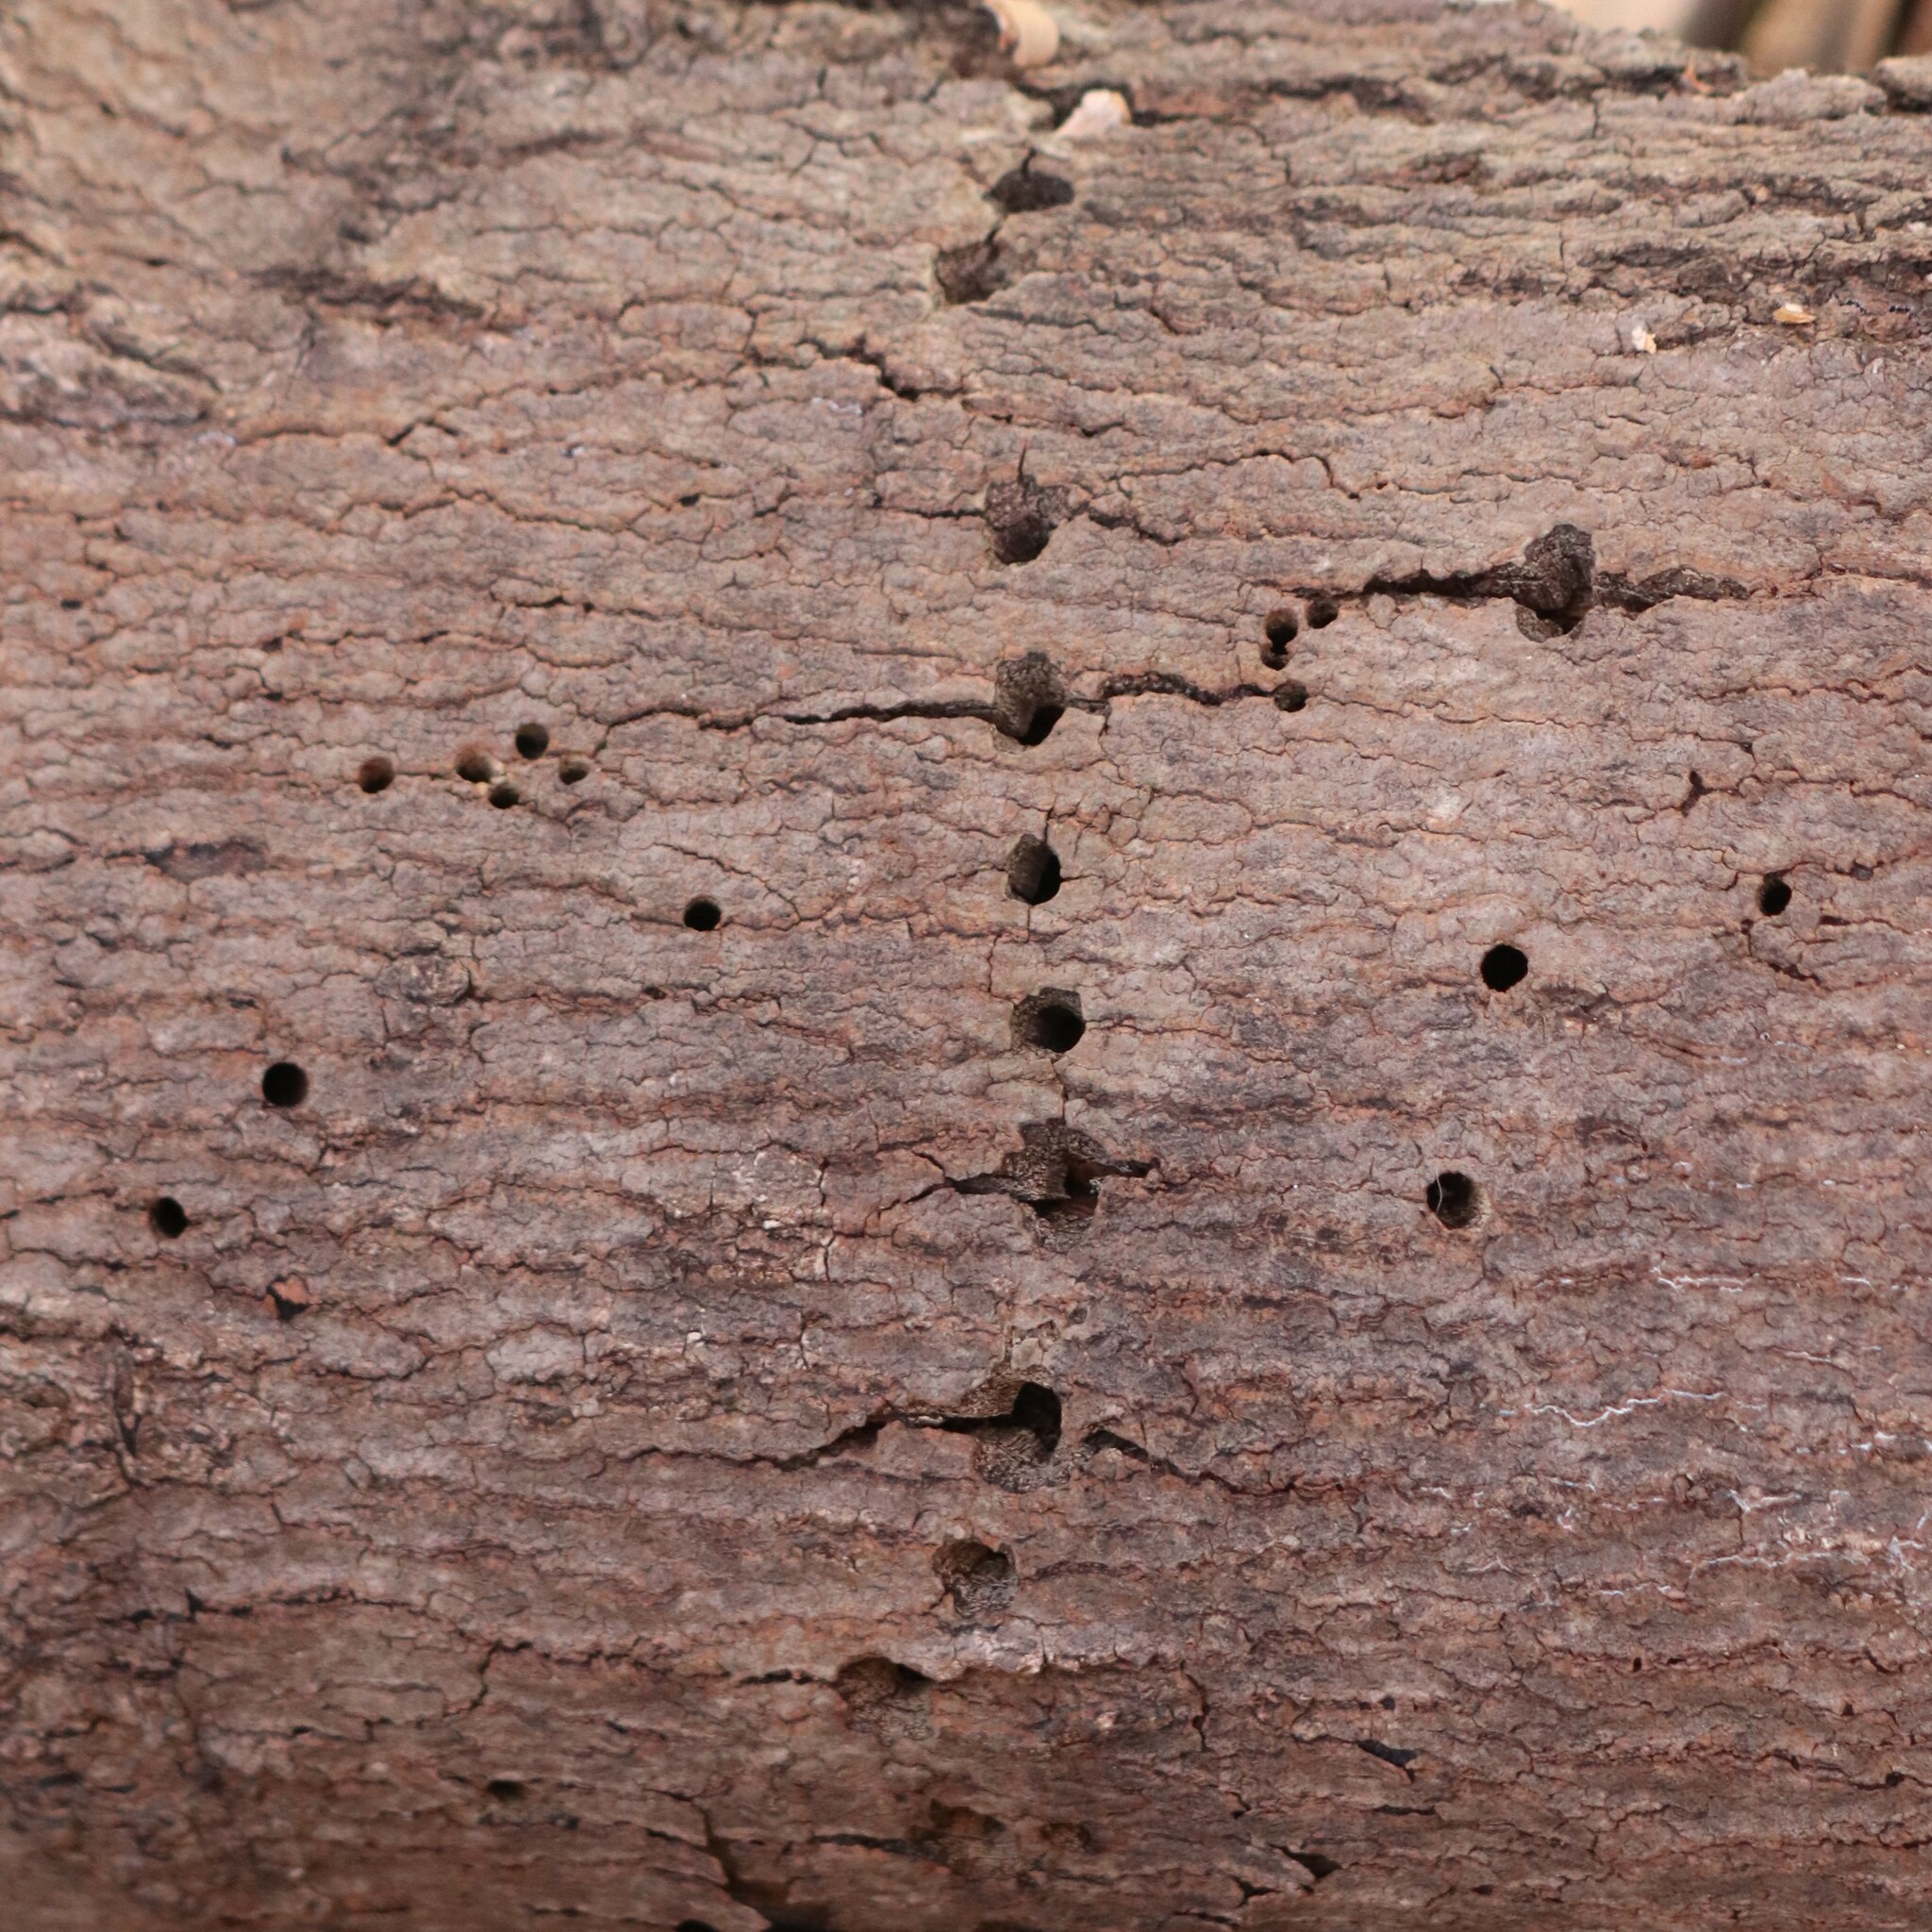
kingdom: Animalia
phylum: Chordata
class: Aves
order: Piciformes
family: Picidae
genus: Sphyrapicus
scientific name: Sphyrapicus varius
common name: Yellow-bellied sapsucker
